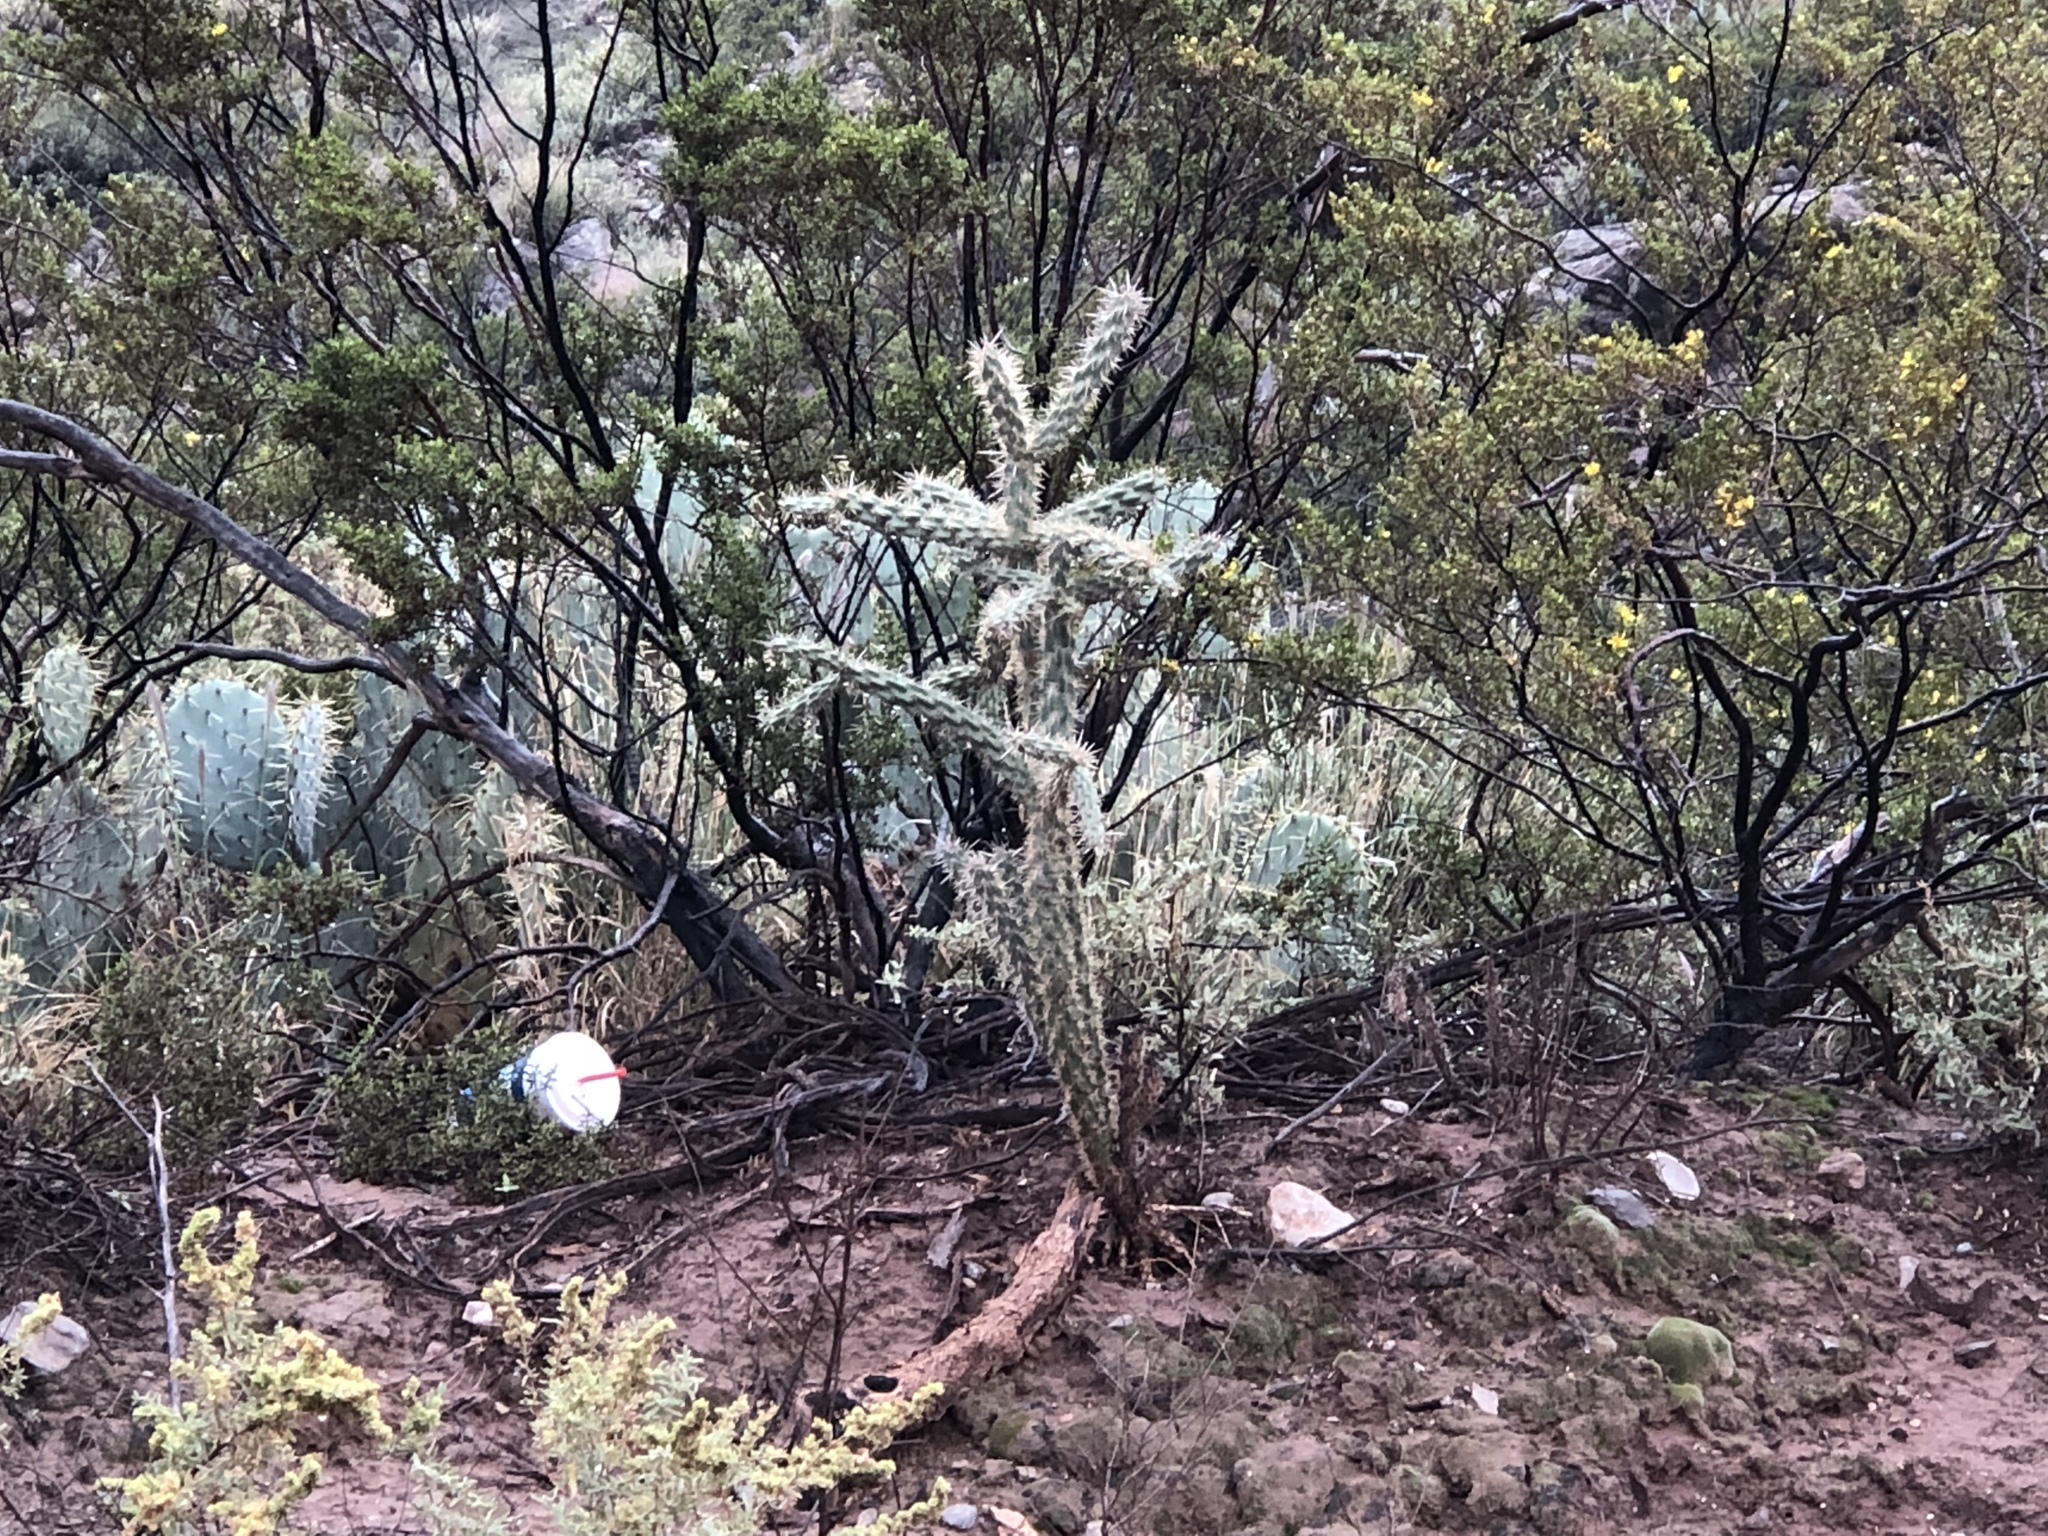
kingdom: Plantae
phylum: Tracheophyta
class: Magnoliopsida
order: Caryophyllales
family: Cactaceae
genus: Cylindropuntia
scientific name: Cylindropuntia imbricata
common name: Candelabrum cactus
